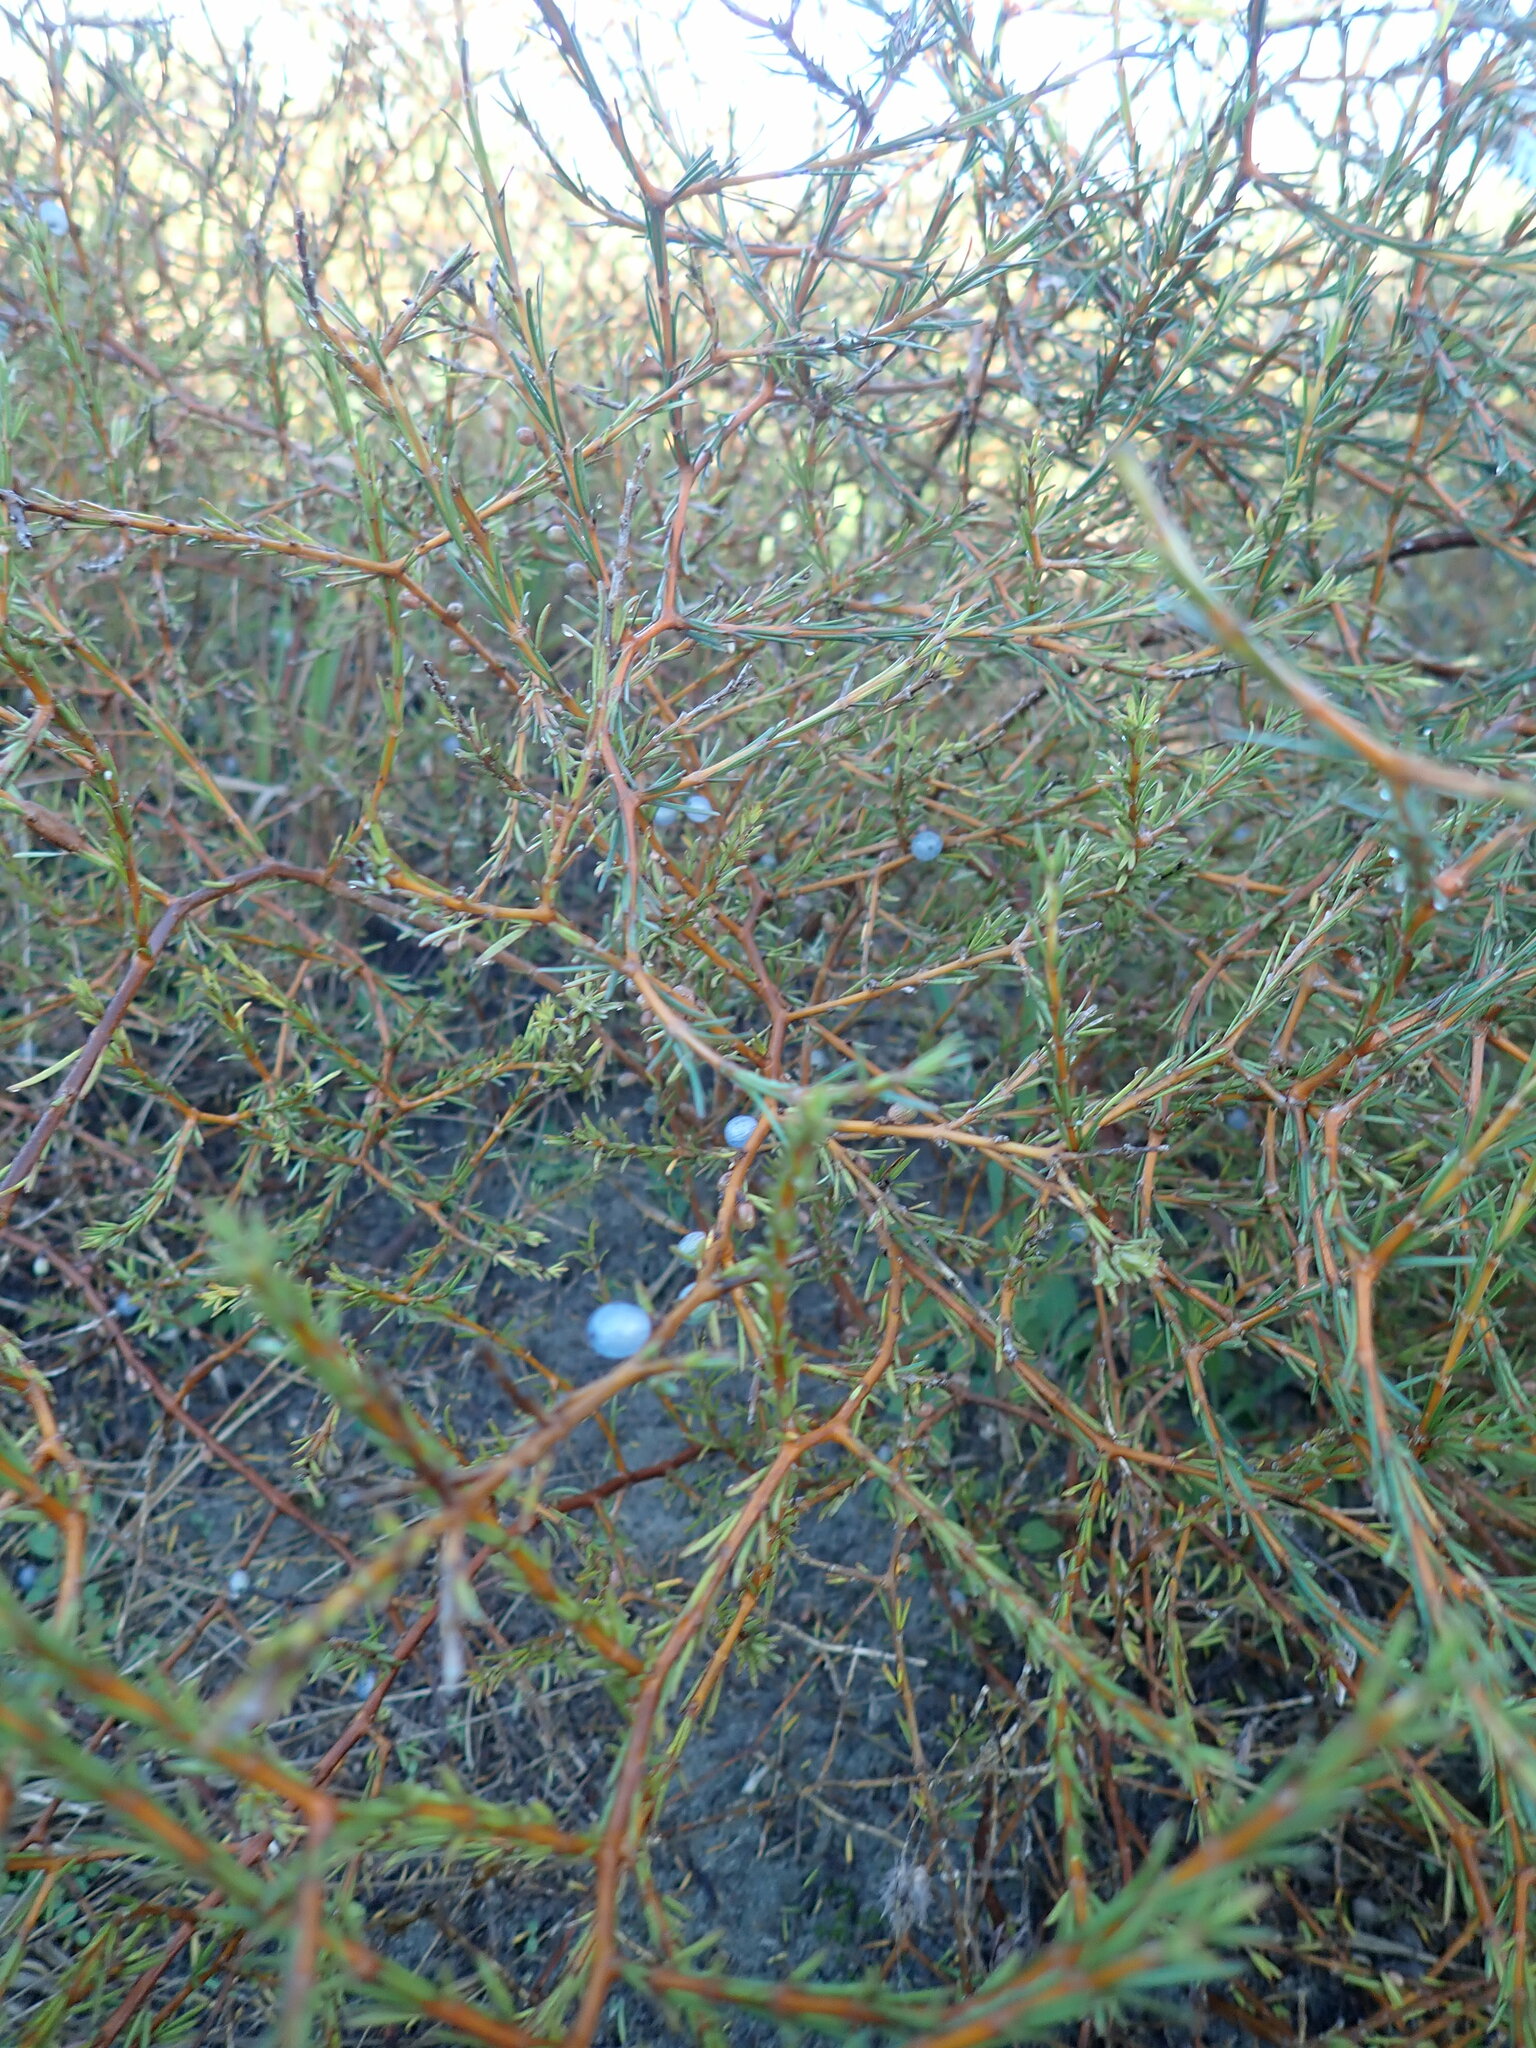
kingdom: Plantae
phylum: Tracheophyta
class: Magnoliopsida
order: Gentianales
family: Rubiaceae
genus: Coprosma
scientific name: Coprosma acerosa
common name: Sand coprosma
